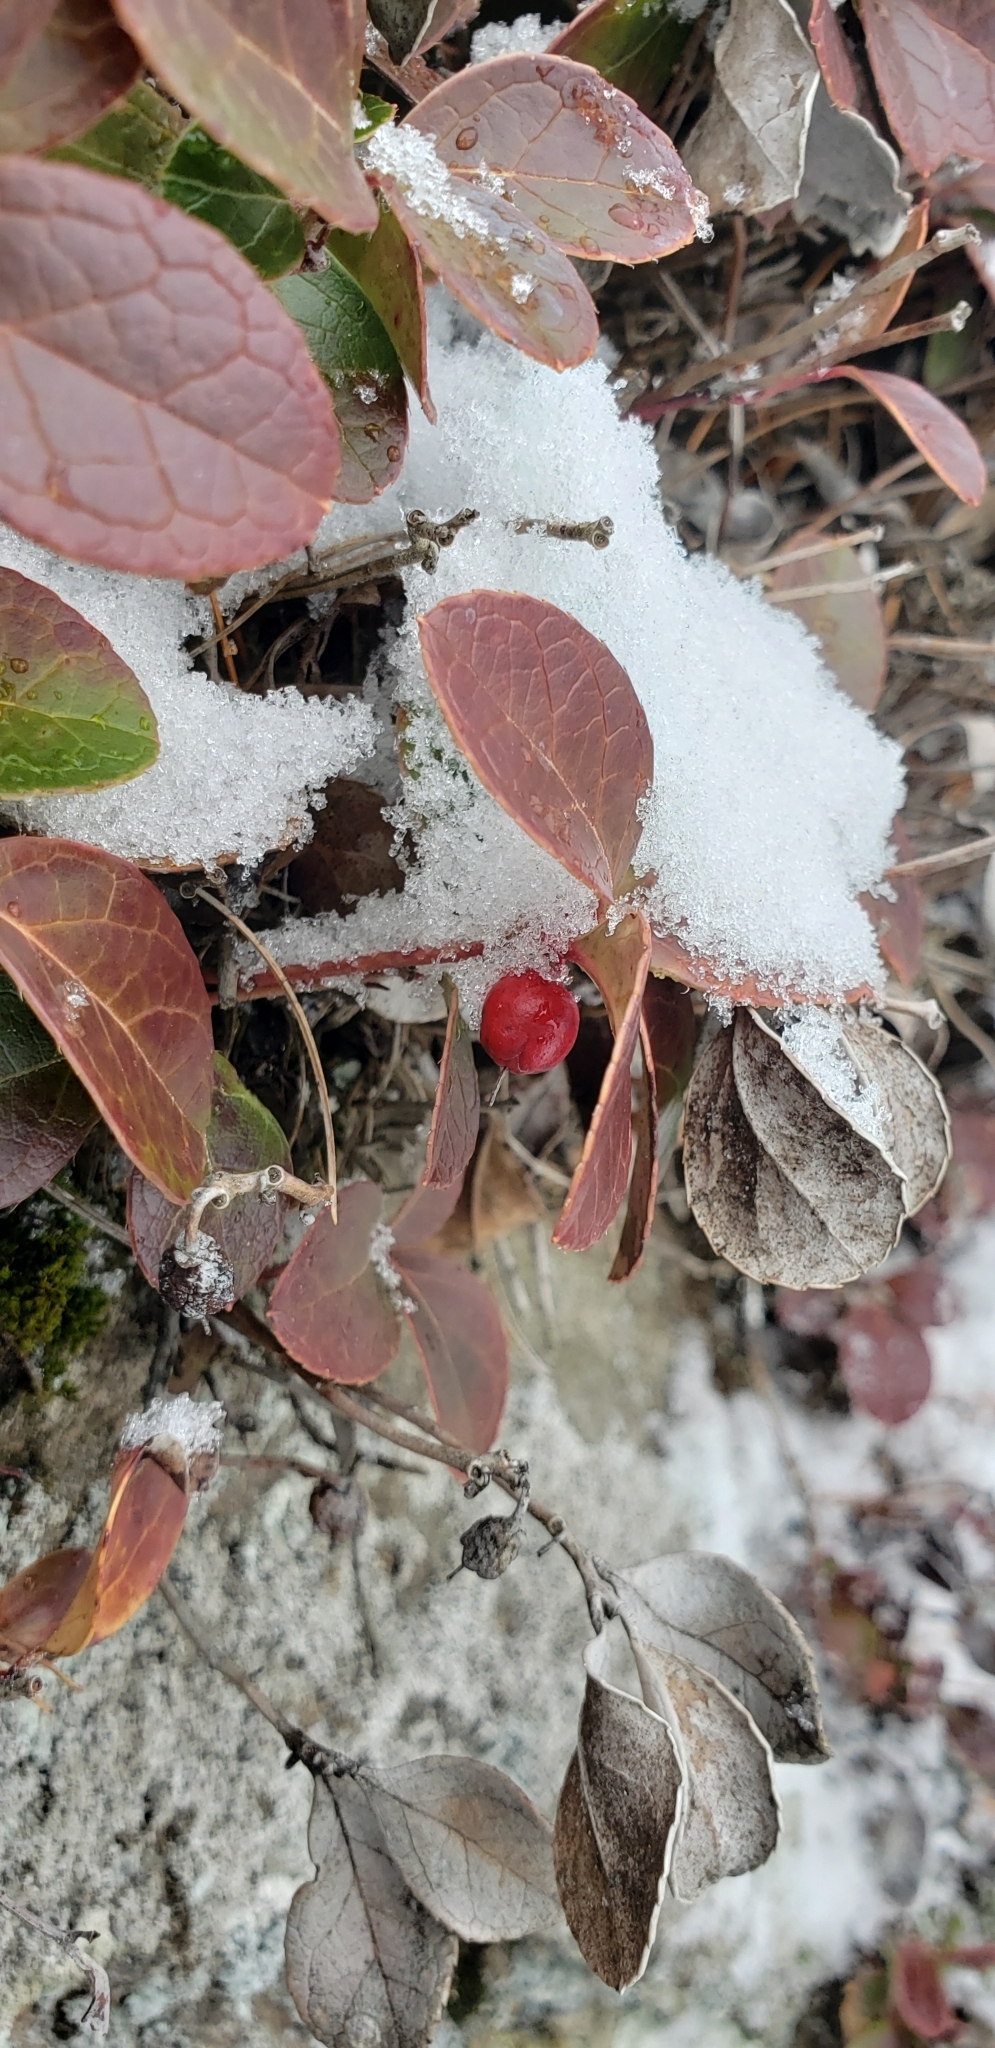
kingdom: Plantae
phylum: Tracheophyta
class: Magnoliopsida
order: Ericales
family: Ericaceae
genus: Gaultheria
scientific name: Gaultheria procumbens
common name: Checkerberry
